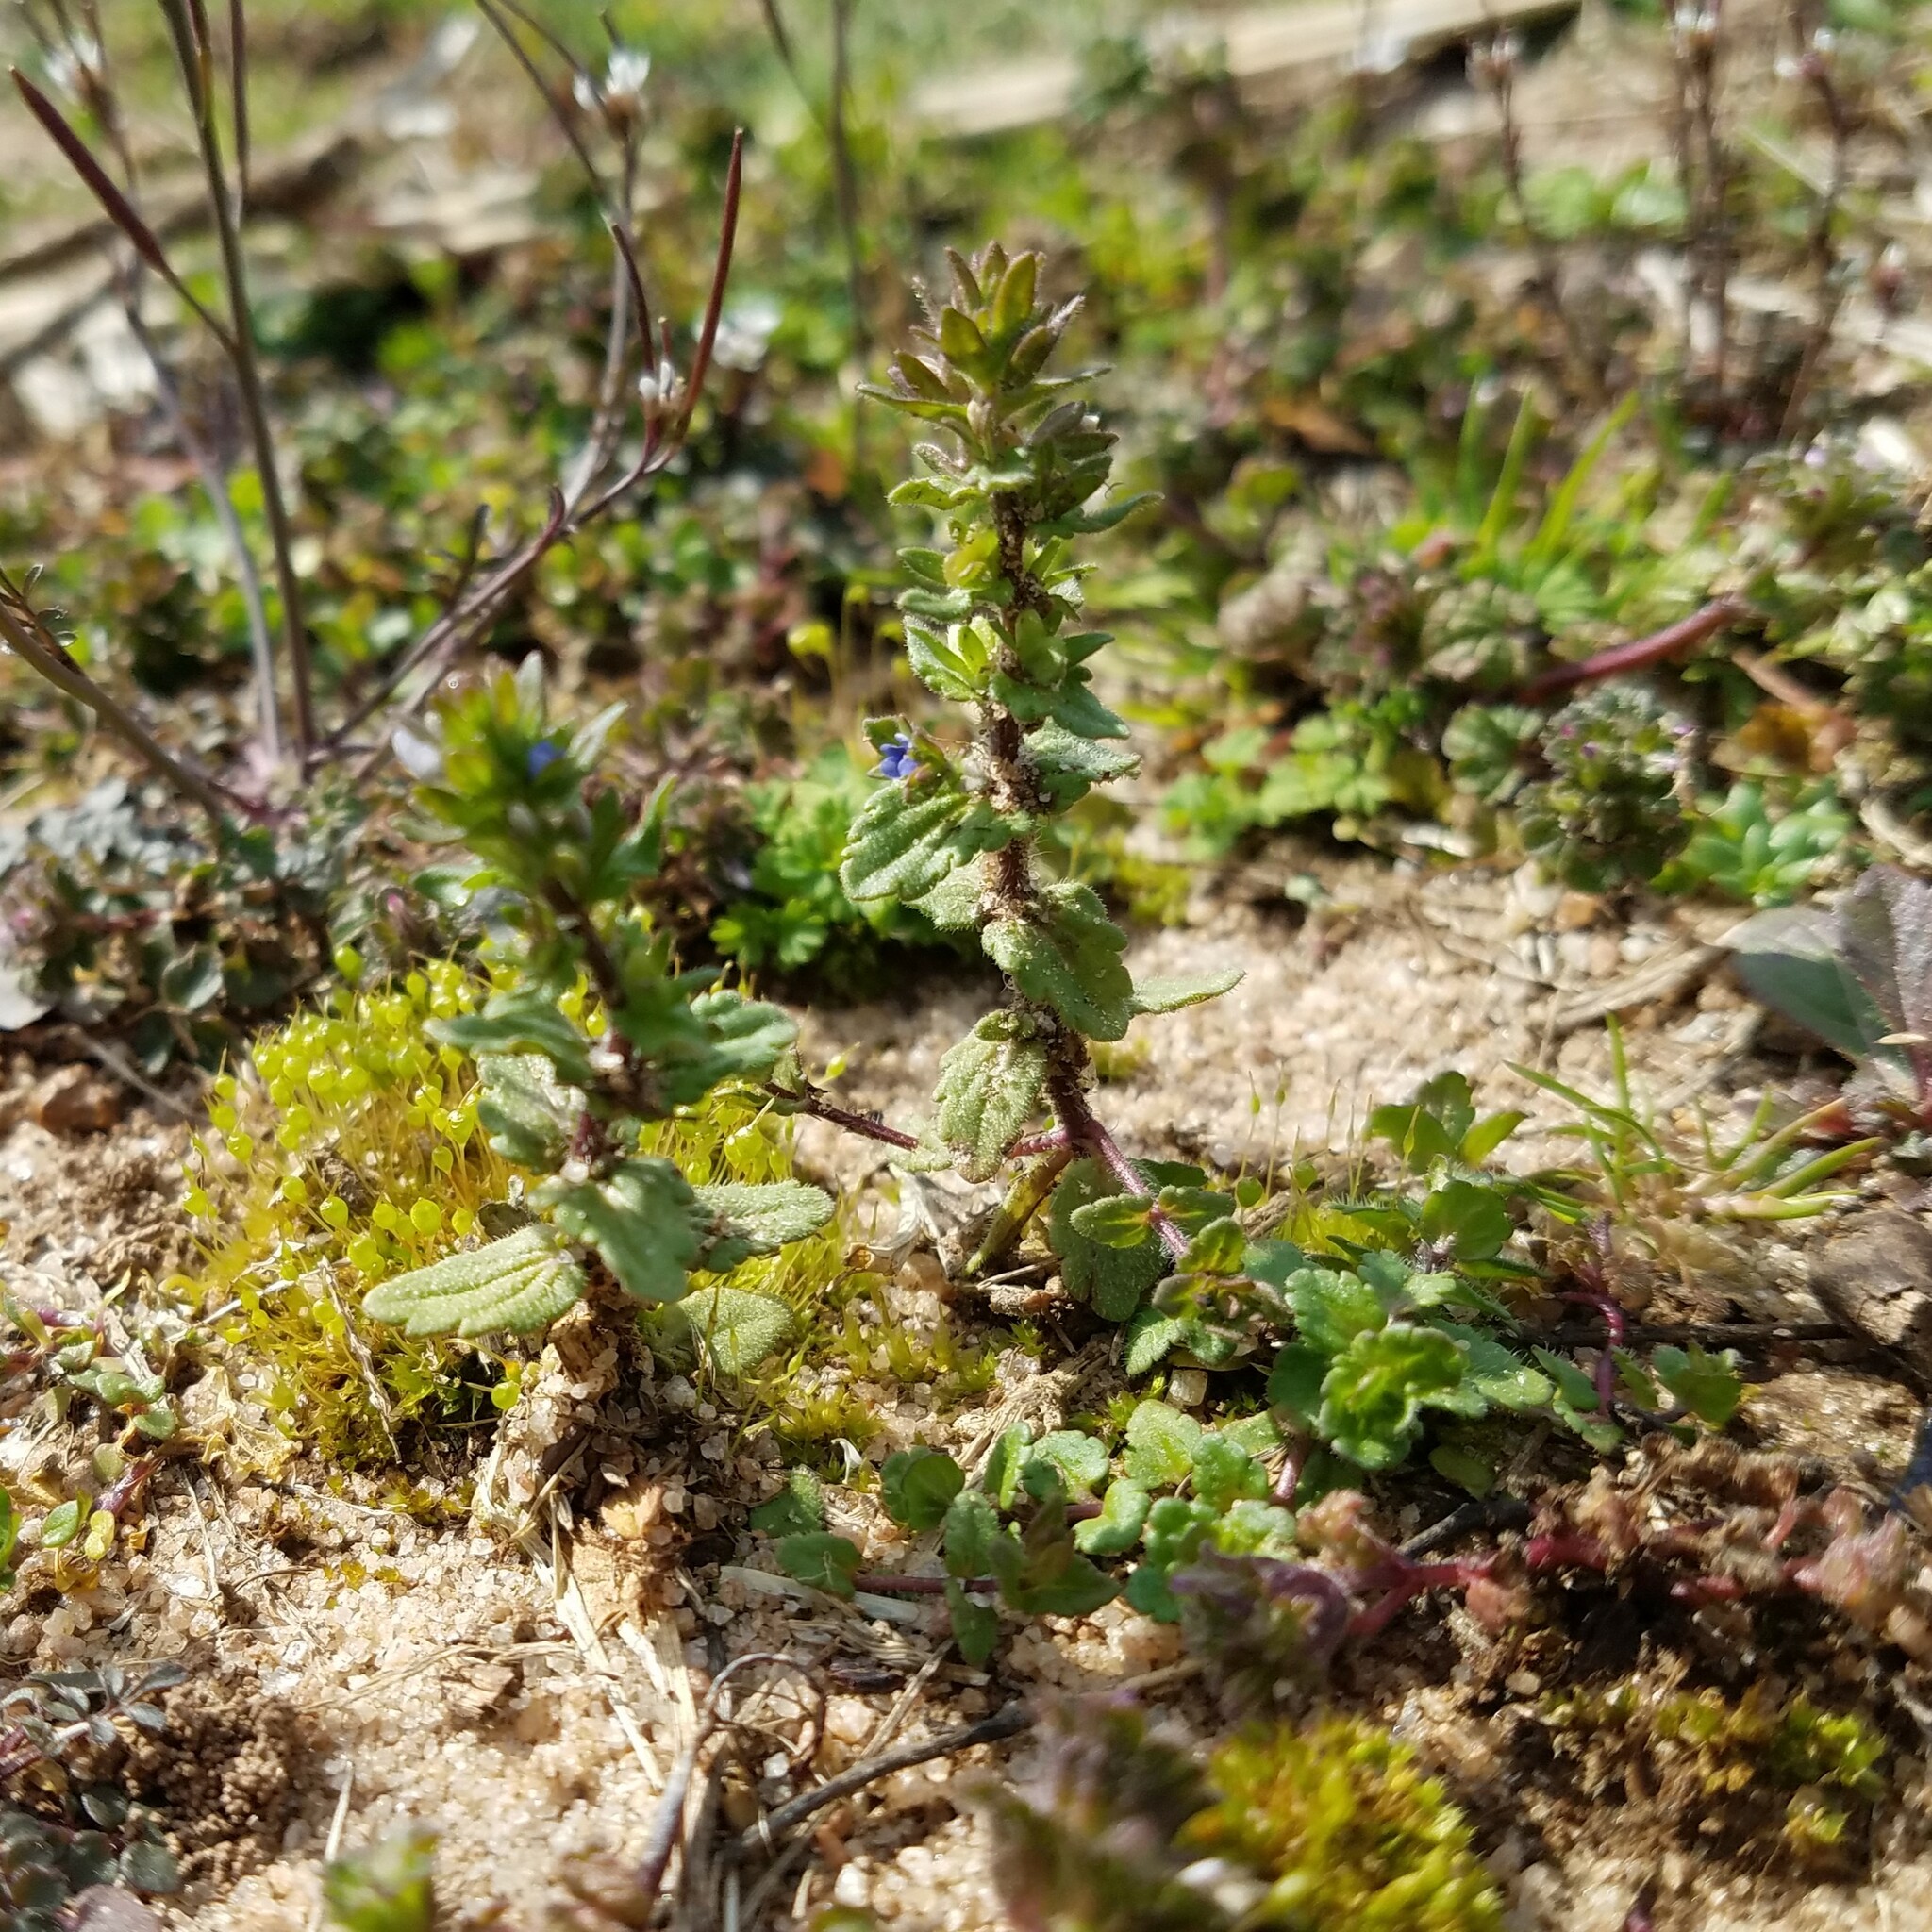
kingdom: Plantae
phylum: Tracheophyta
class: Magnoliopsida
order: Lamiales
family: Plantaginaceae
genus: Veronica
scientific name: Veronica arvensis
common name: Corn speedwell
